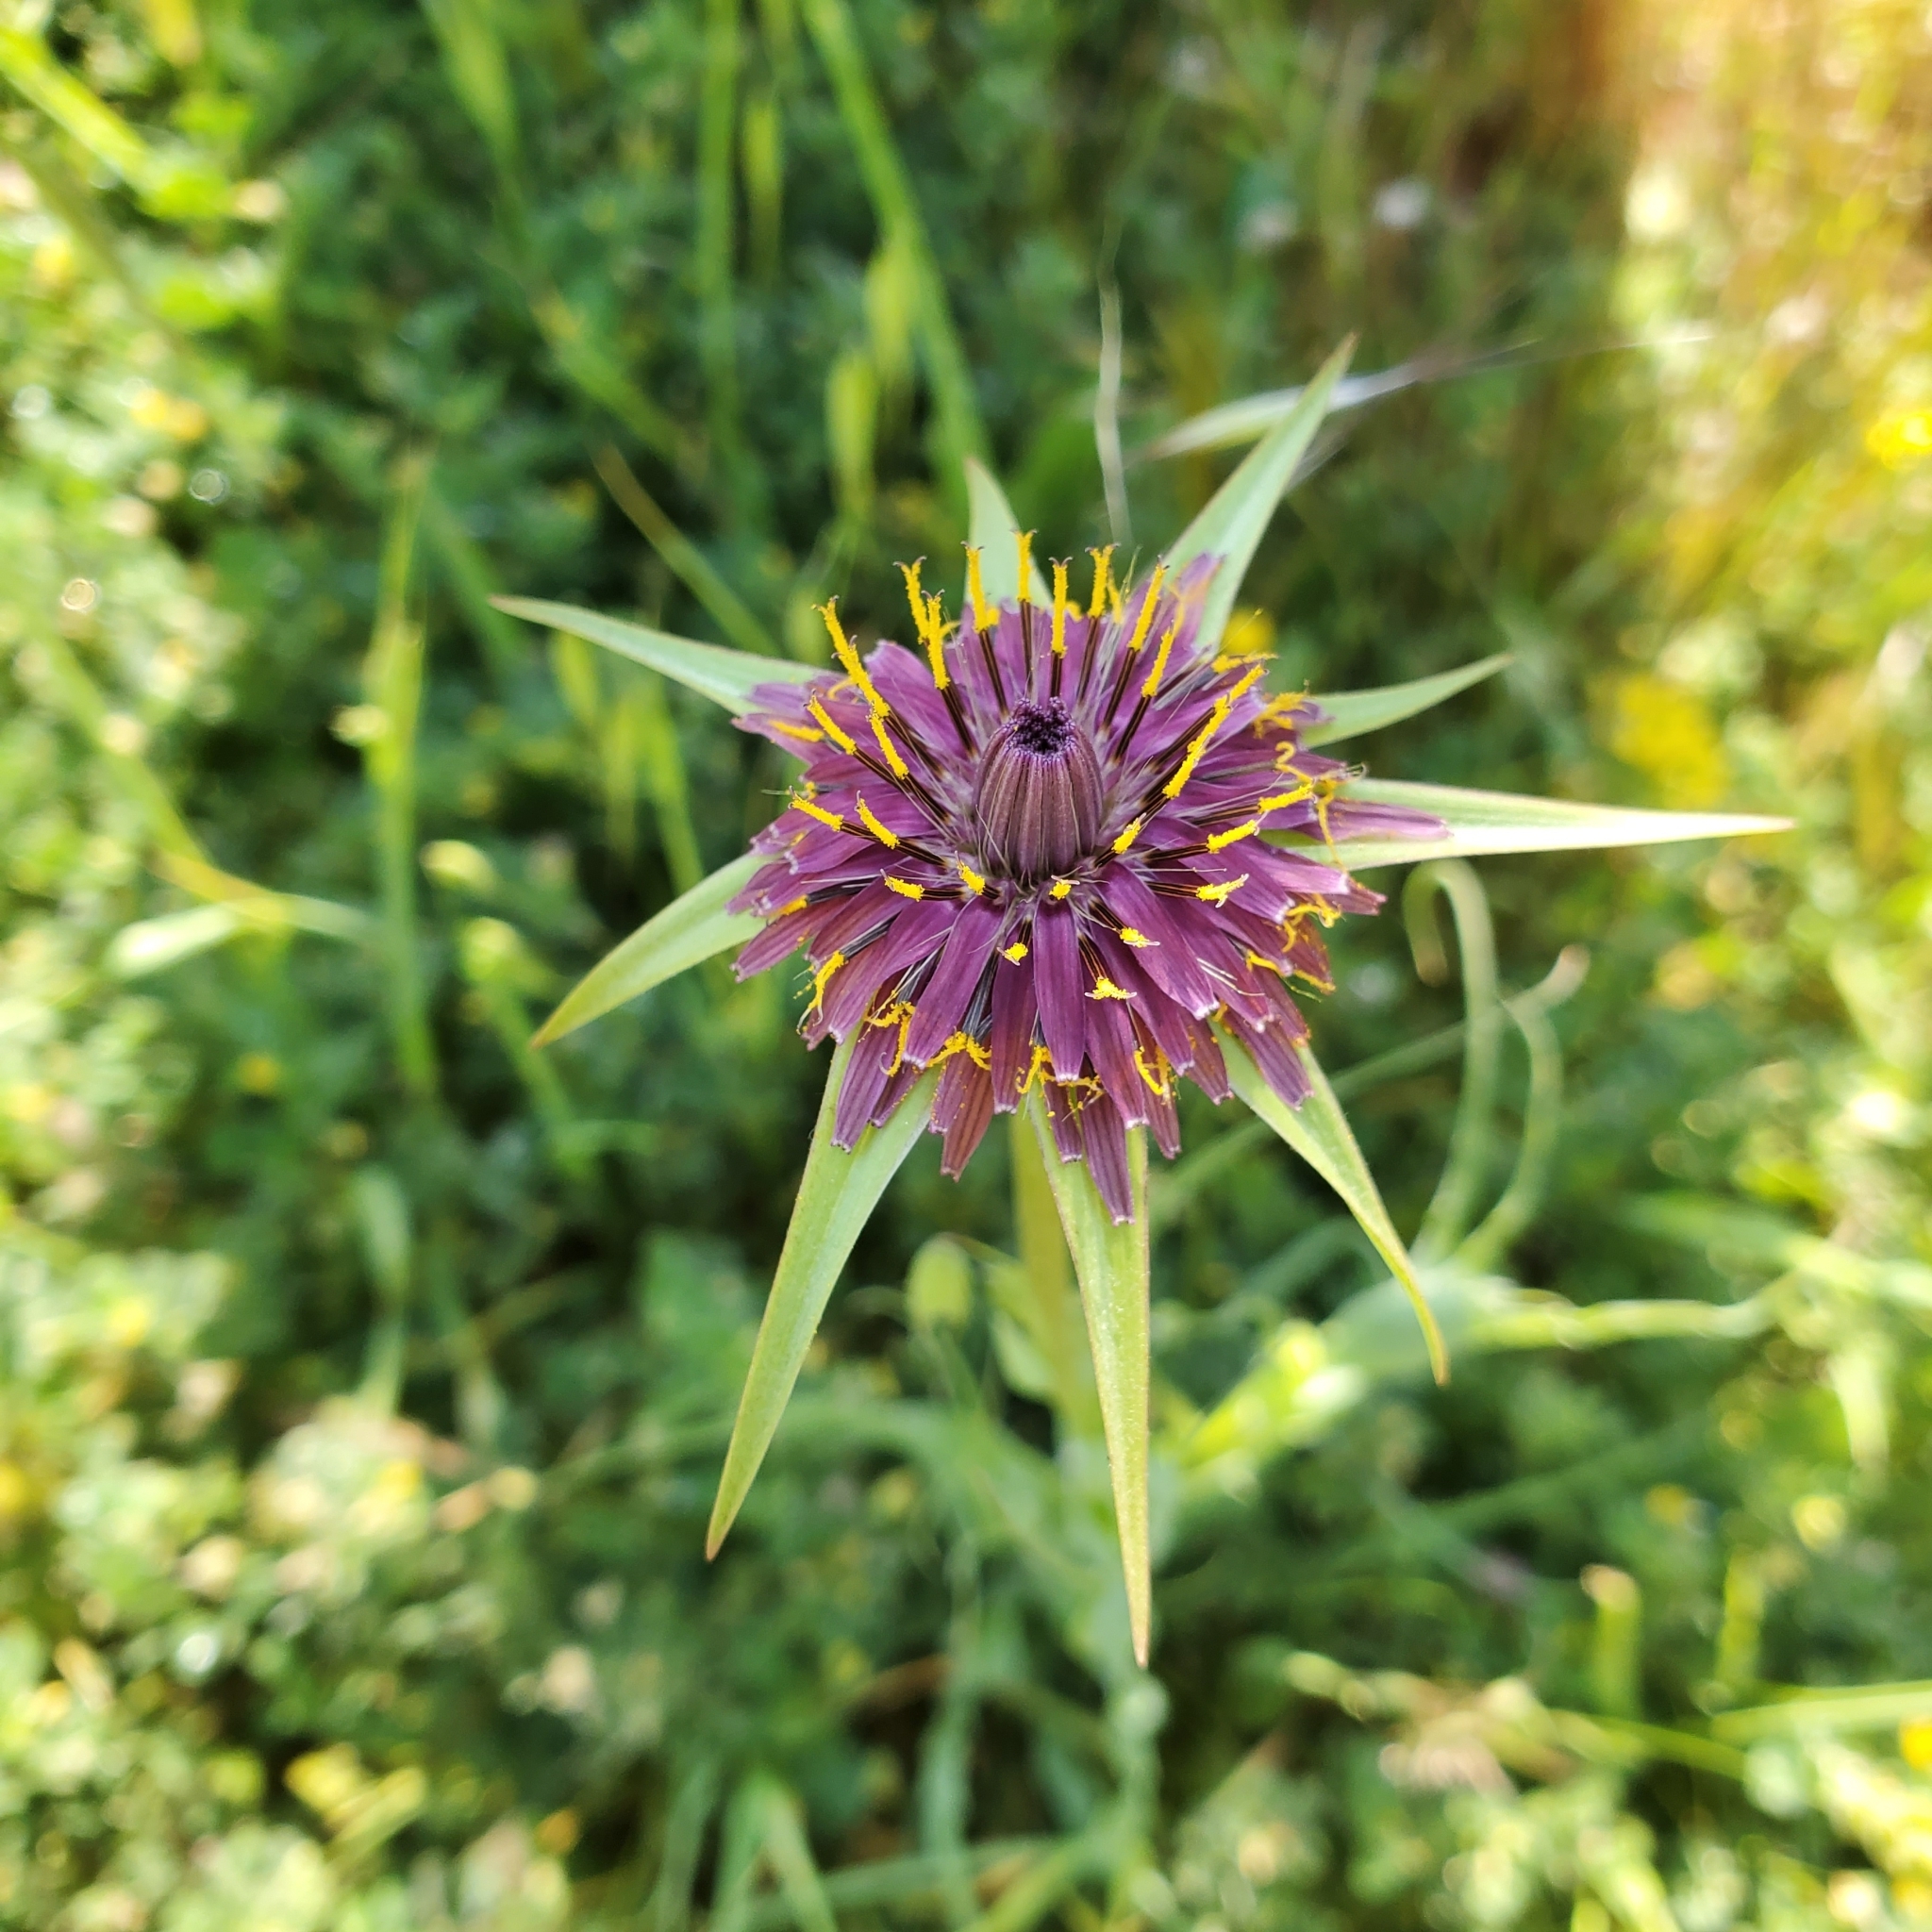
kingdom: Plantae
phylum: Tracheophyta
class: Magnoliopsida
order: Asterales
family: Asteraceae
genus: Tragopogon
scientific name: Tragopogon porrifolius
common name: Salsify
